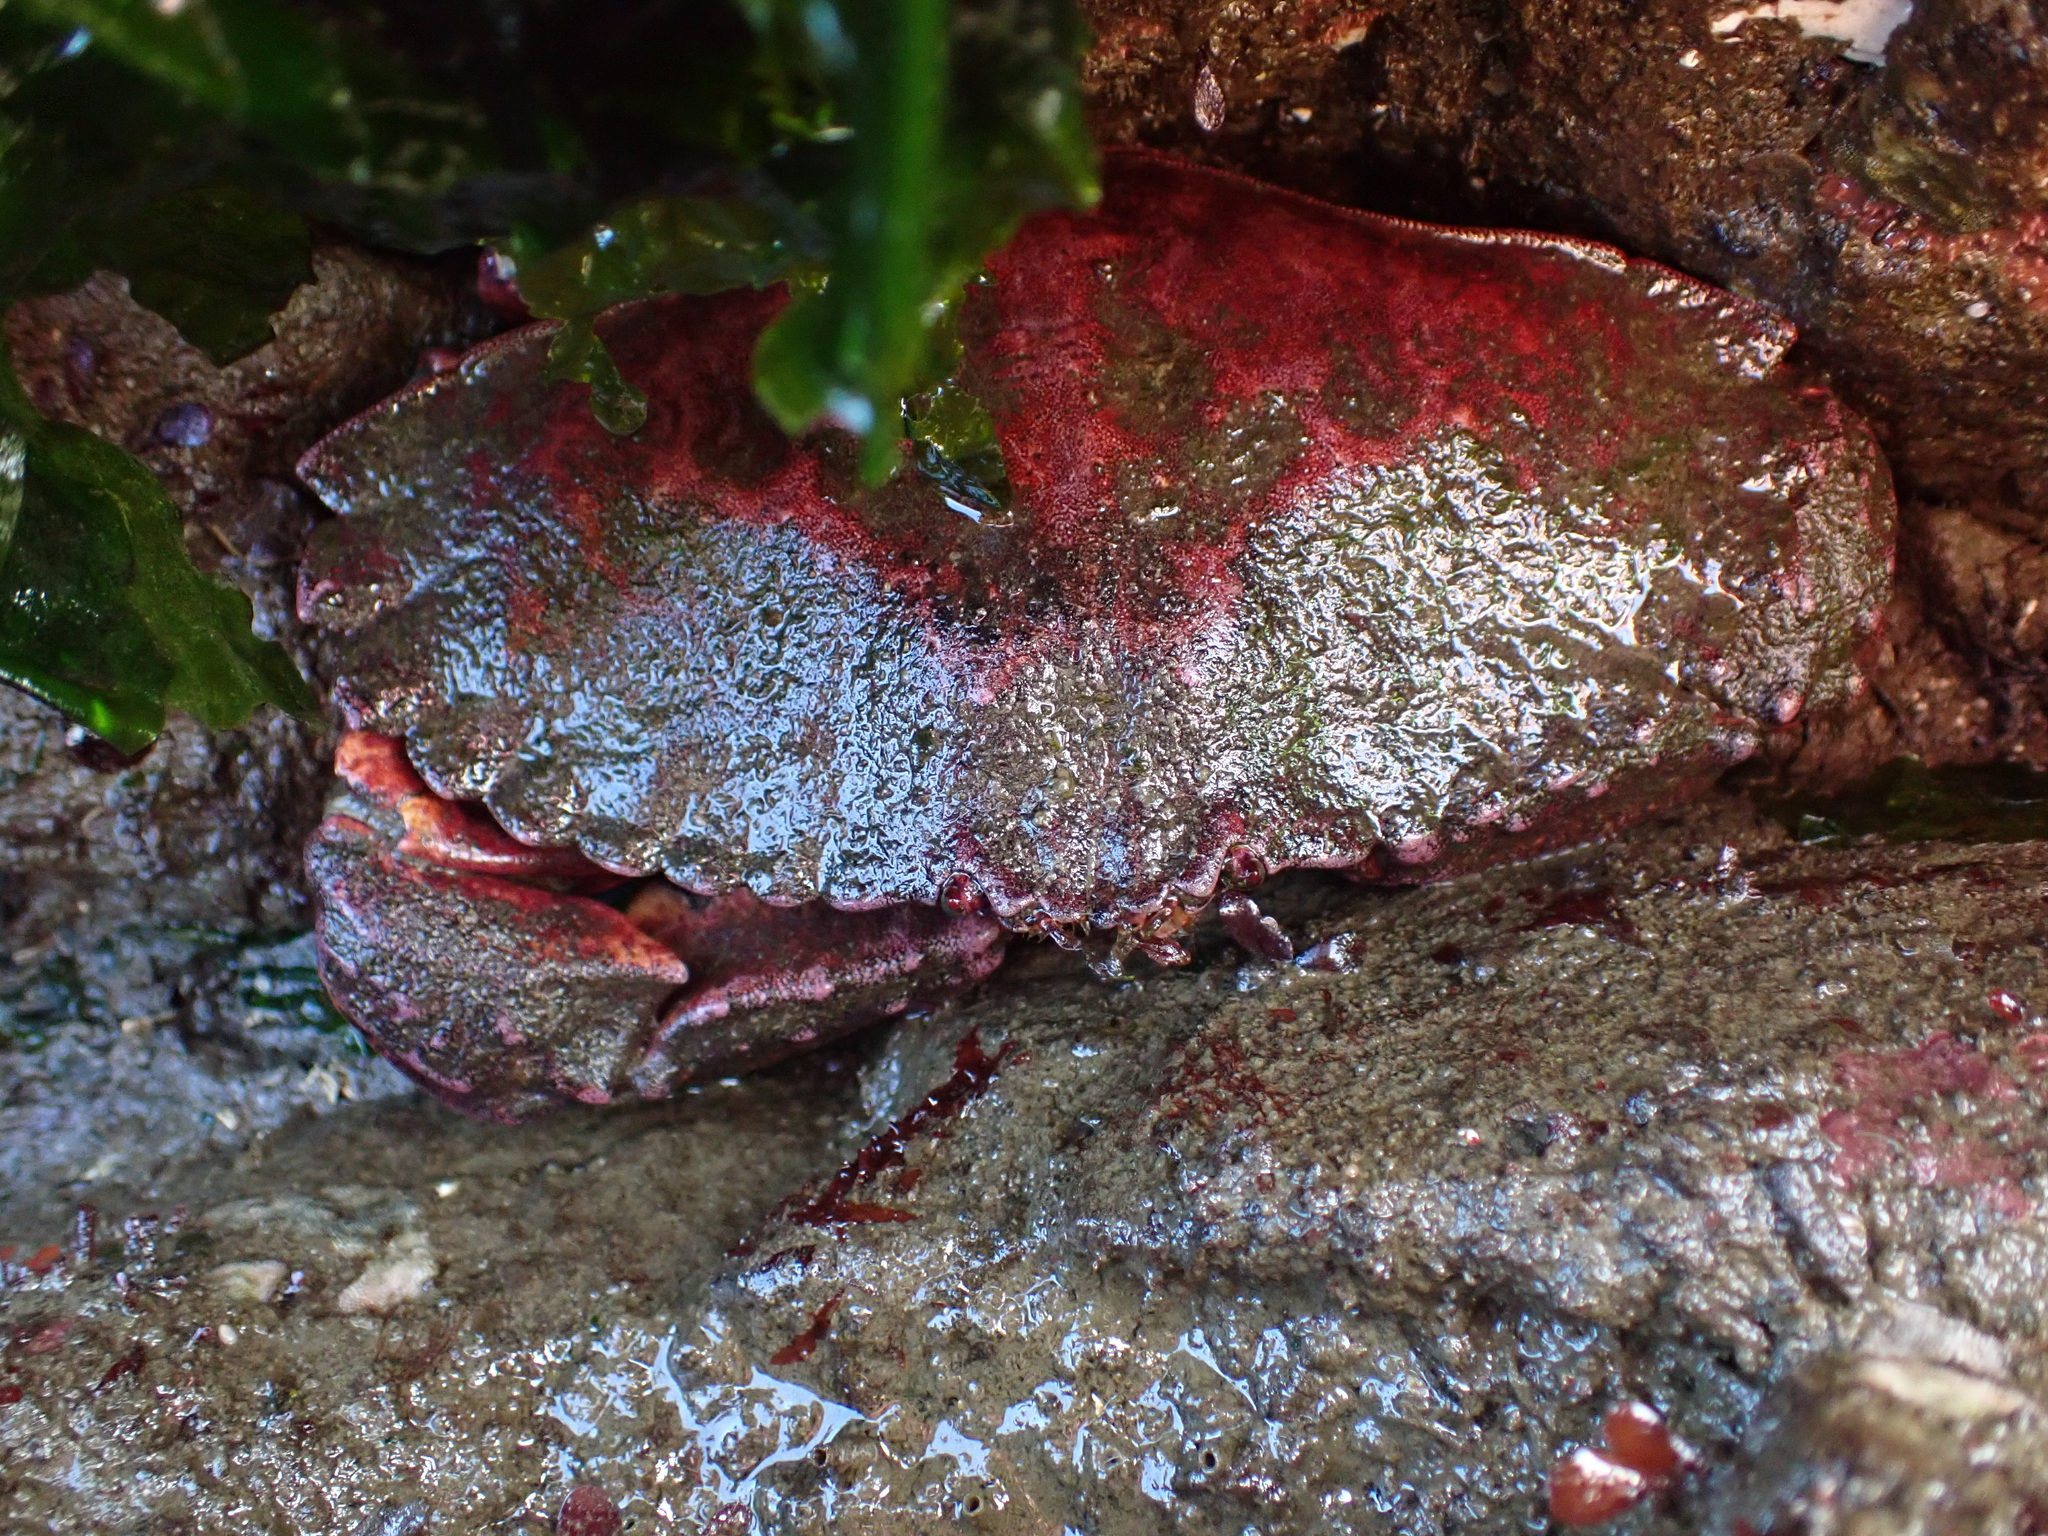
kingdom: Animalia
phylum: Arthropoda
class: Malacostraca
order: Decapoda
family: Cancridae
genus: Cancer
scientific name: Cancer productus
